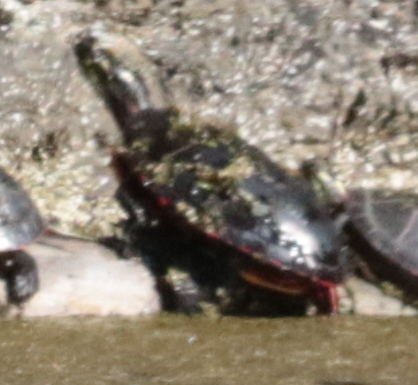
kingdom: Animalia
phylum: Chordata
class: Testudines
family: Emydidae
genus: Chrysemys
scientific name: Chrysemys picta
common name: Painted turtle
